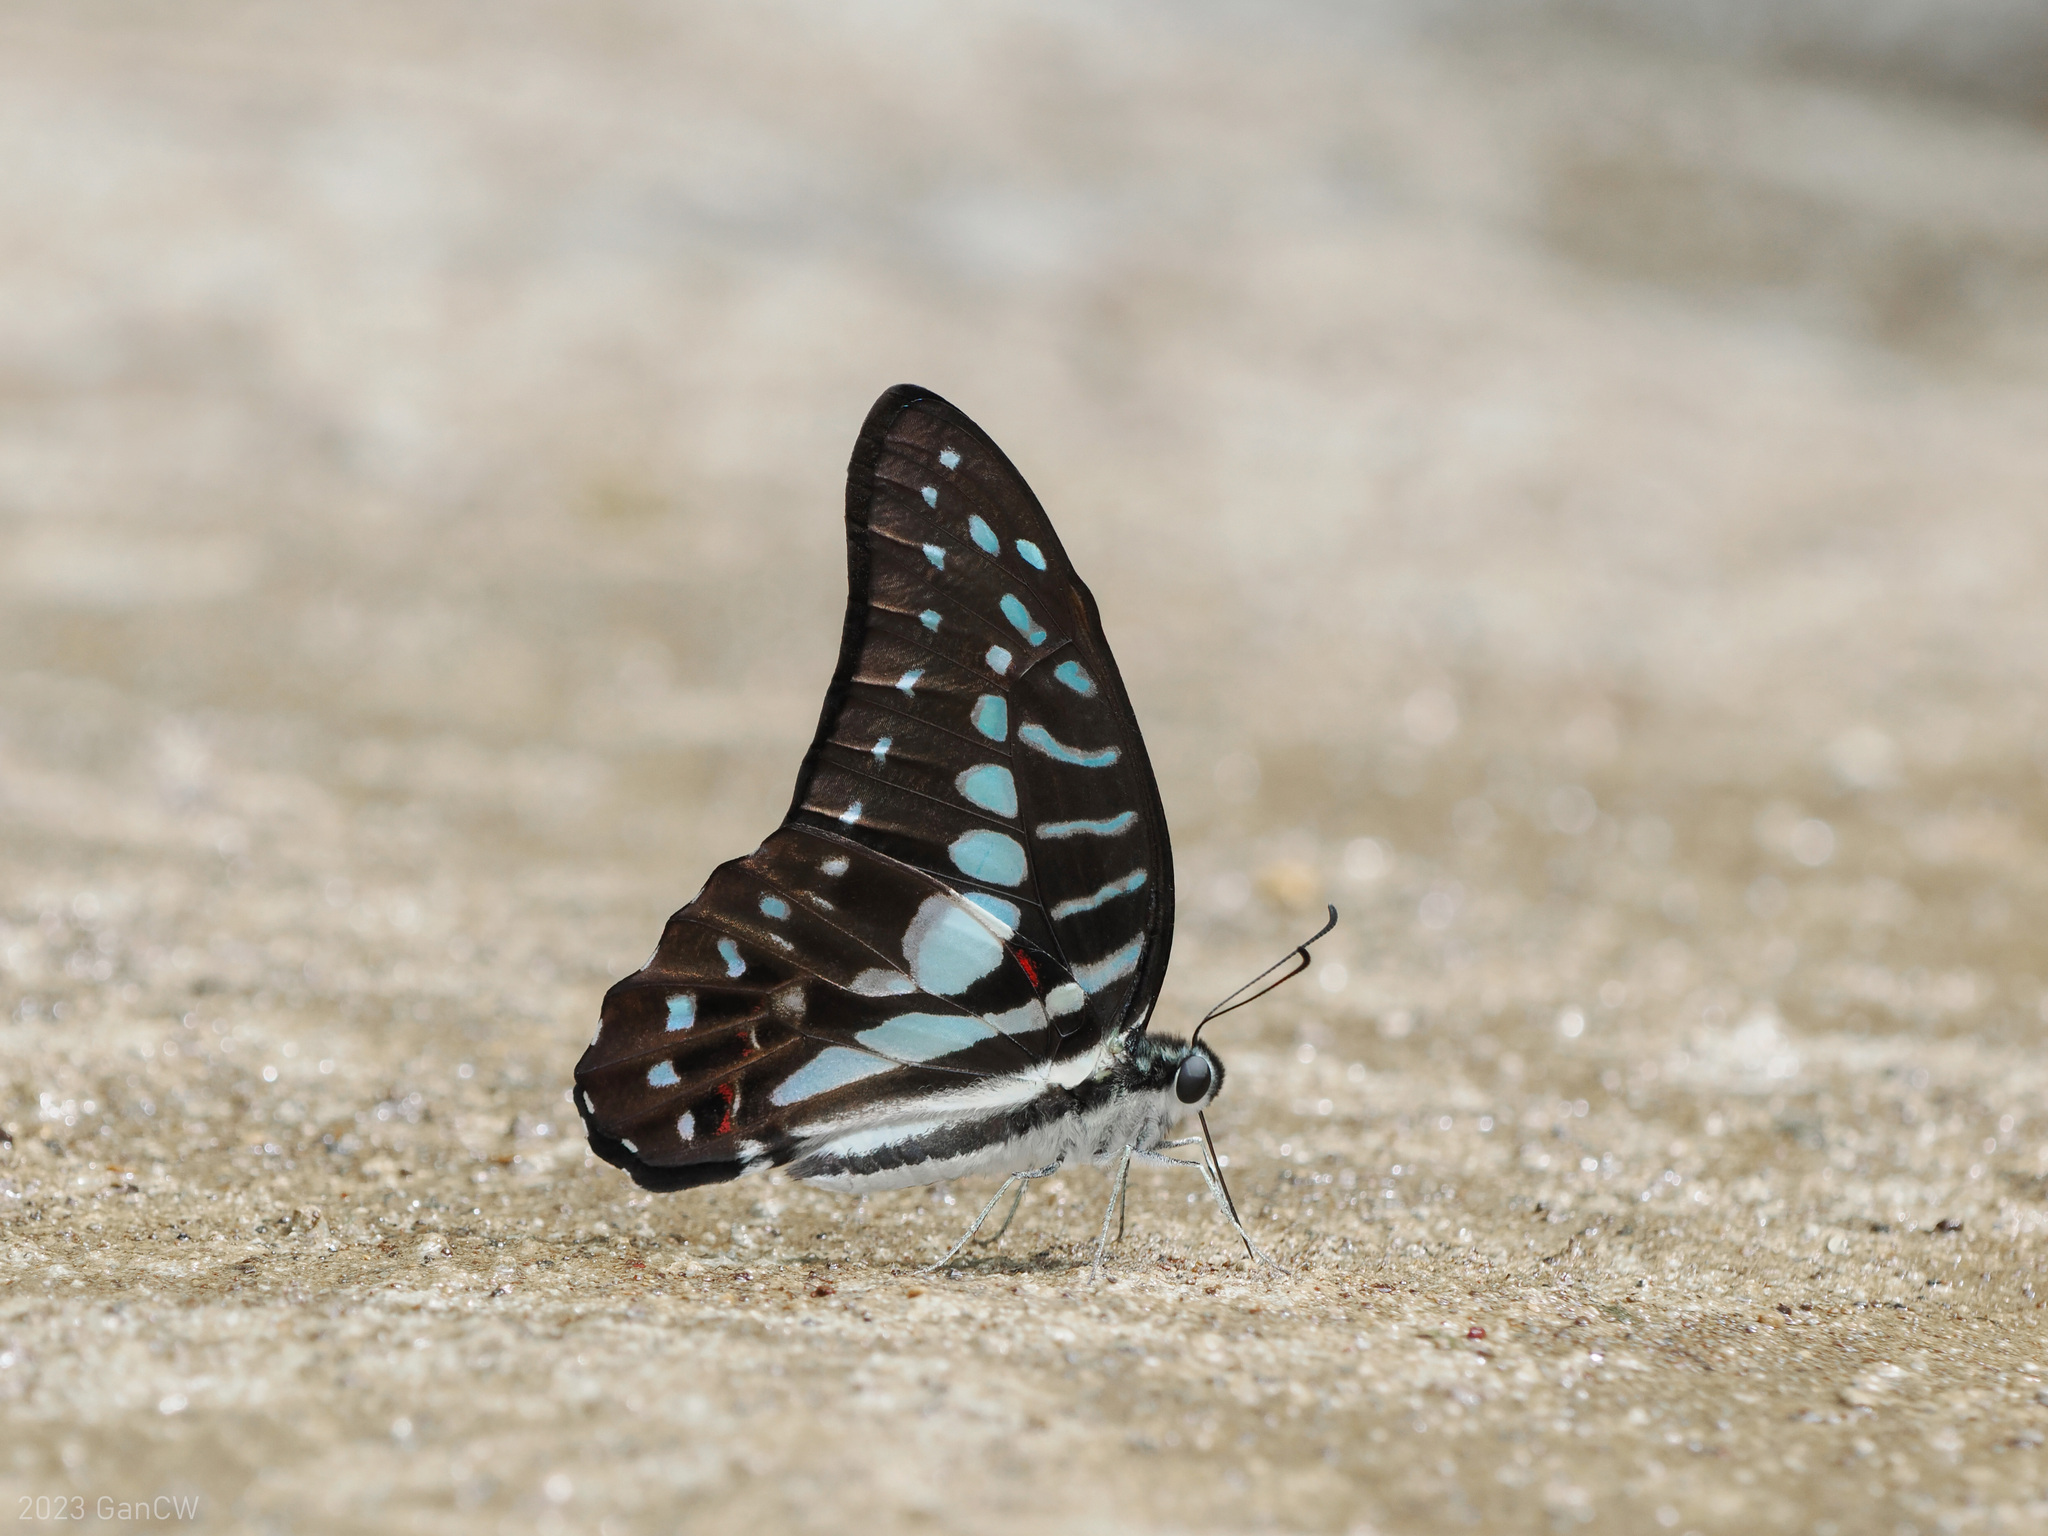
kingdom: Animalia
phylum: Arthropoda
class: Insecta
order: Lepidoptera
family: Papilionidae
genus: Graphium
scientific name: Graphium meyeri
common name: Meyer's triangle
